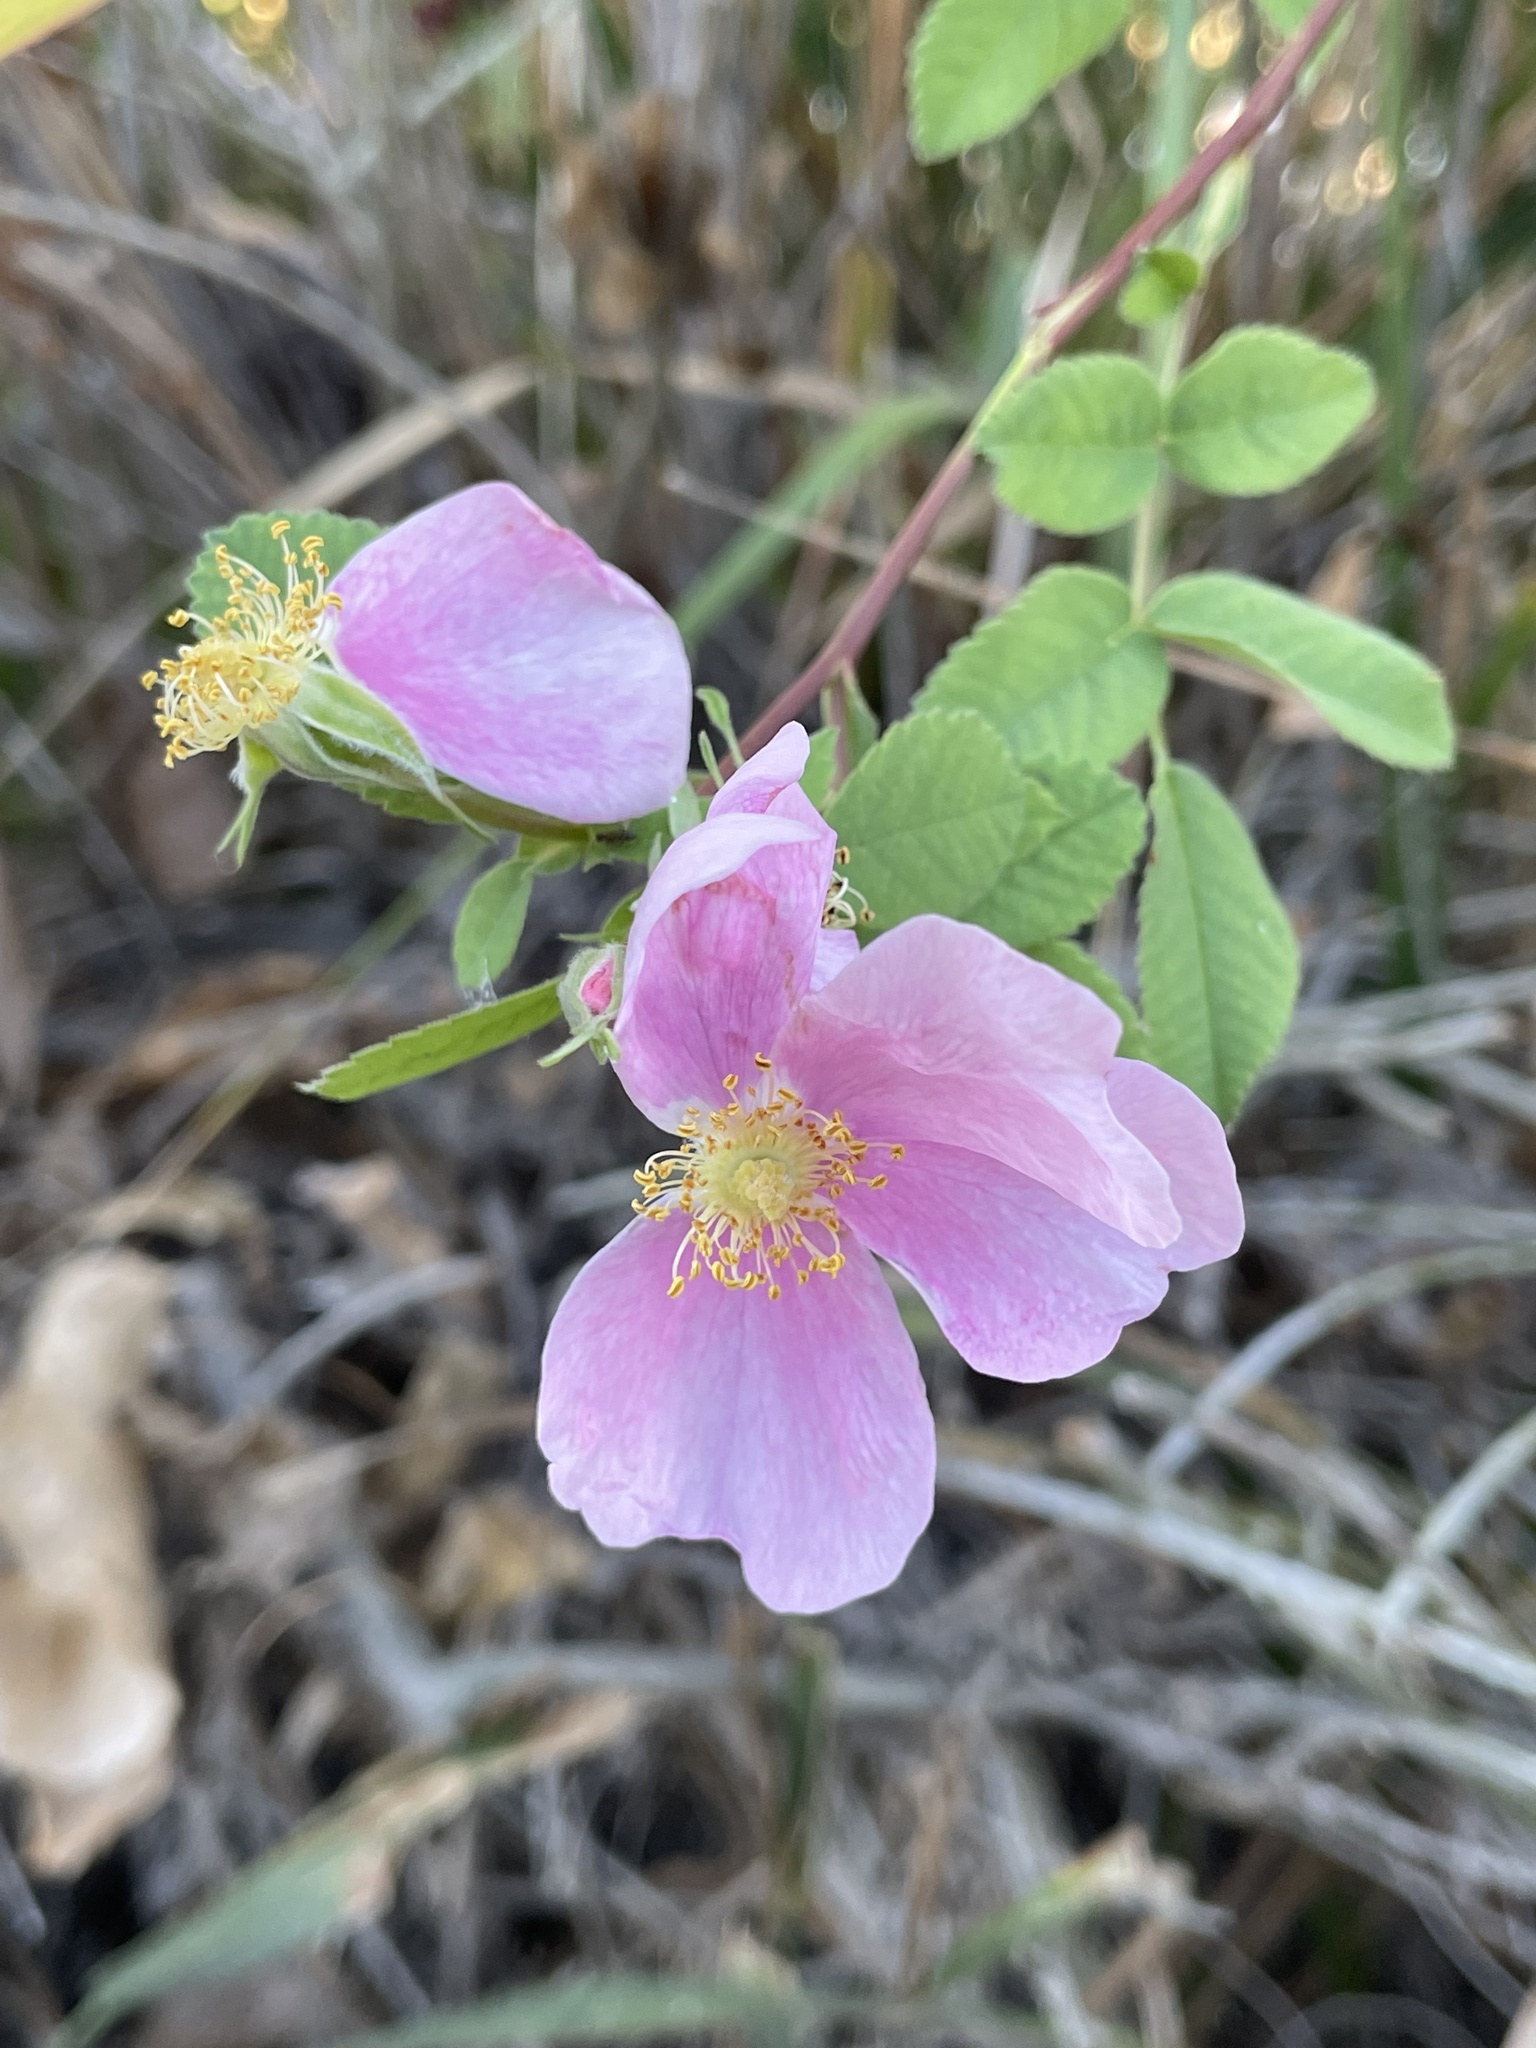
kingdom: Plantae
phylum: Tracheophyta
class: Magnoliopsida
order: Rosales
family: Rosaceae
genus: Rosa
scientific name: Rosa californica
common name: California rose
